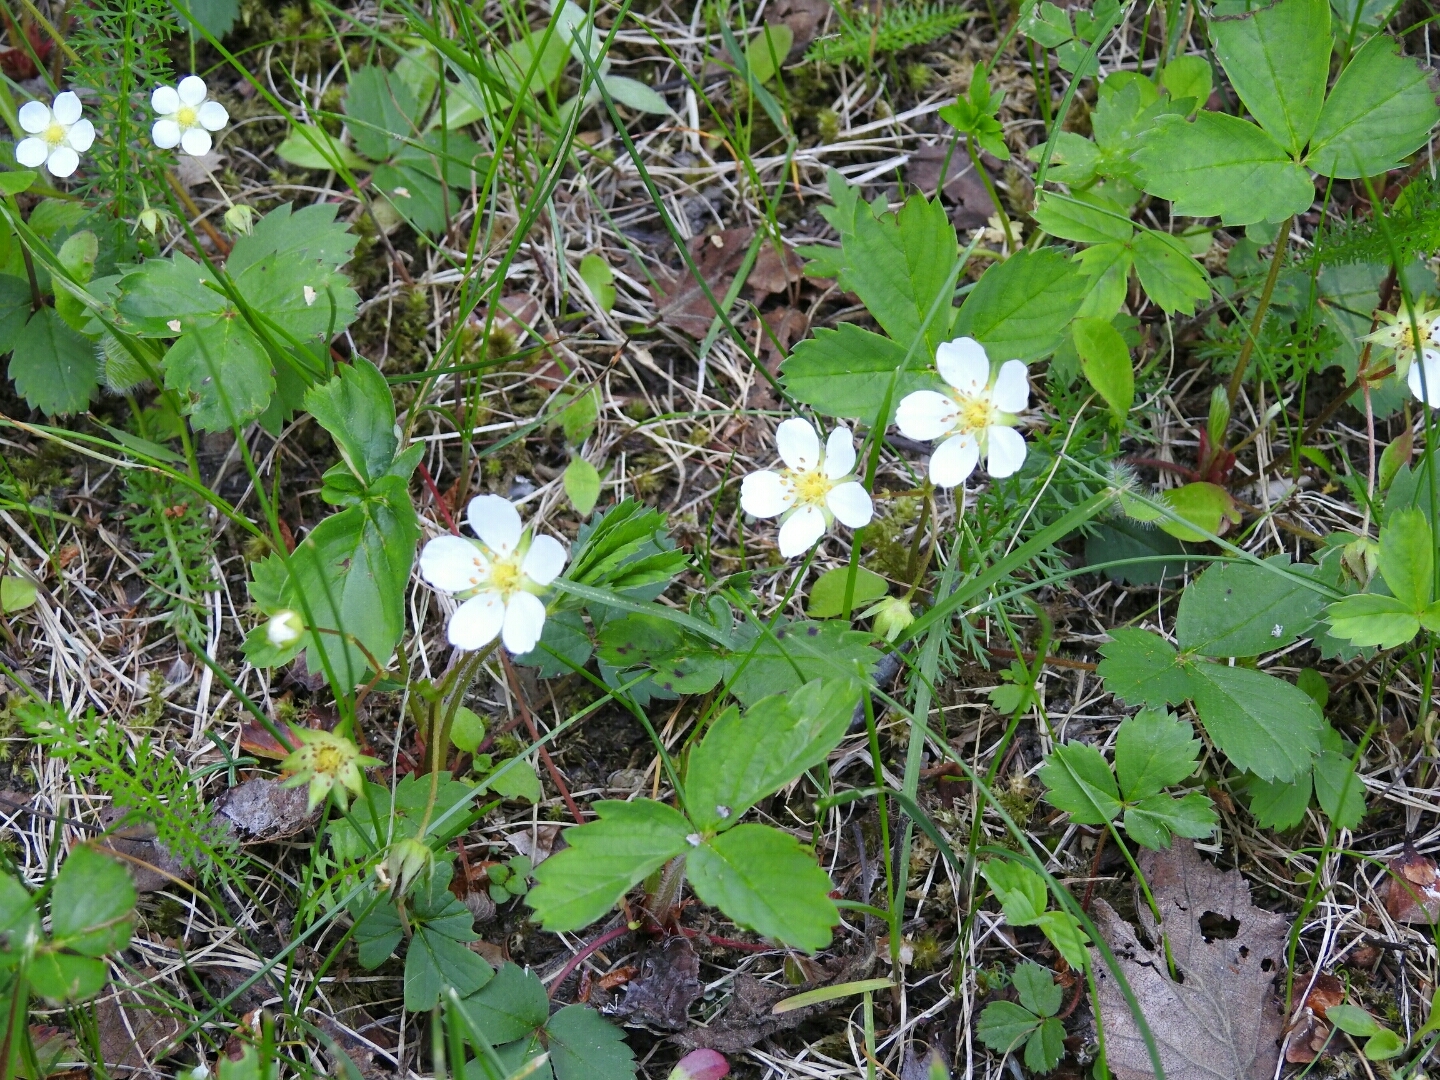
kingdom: Plantae
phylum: Tracheophyta
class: Magnoliopsida
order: Rosales
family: Rosaceae
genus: Fragaria
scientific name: Fragaria virginiana
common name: Thickleaved wild strawberry
